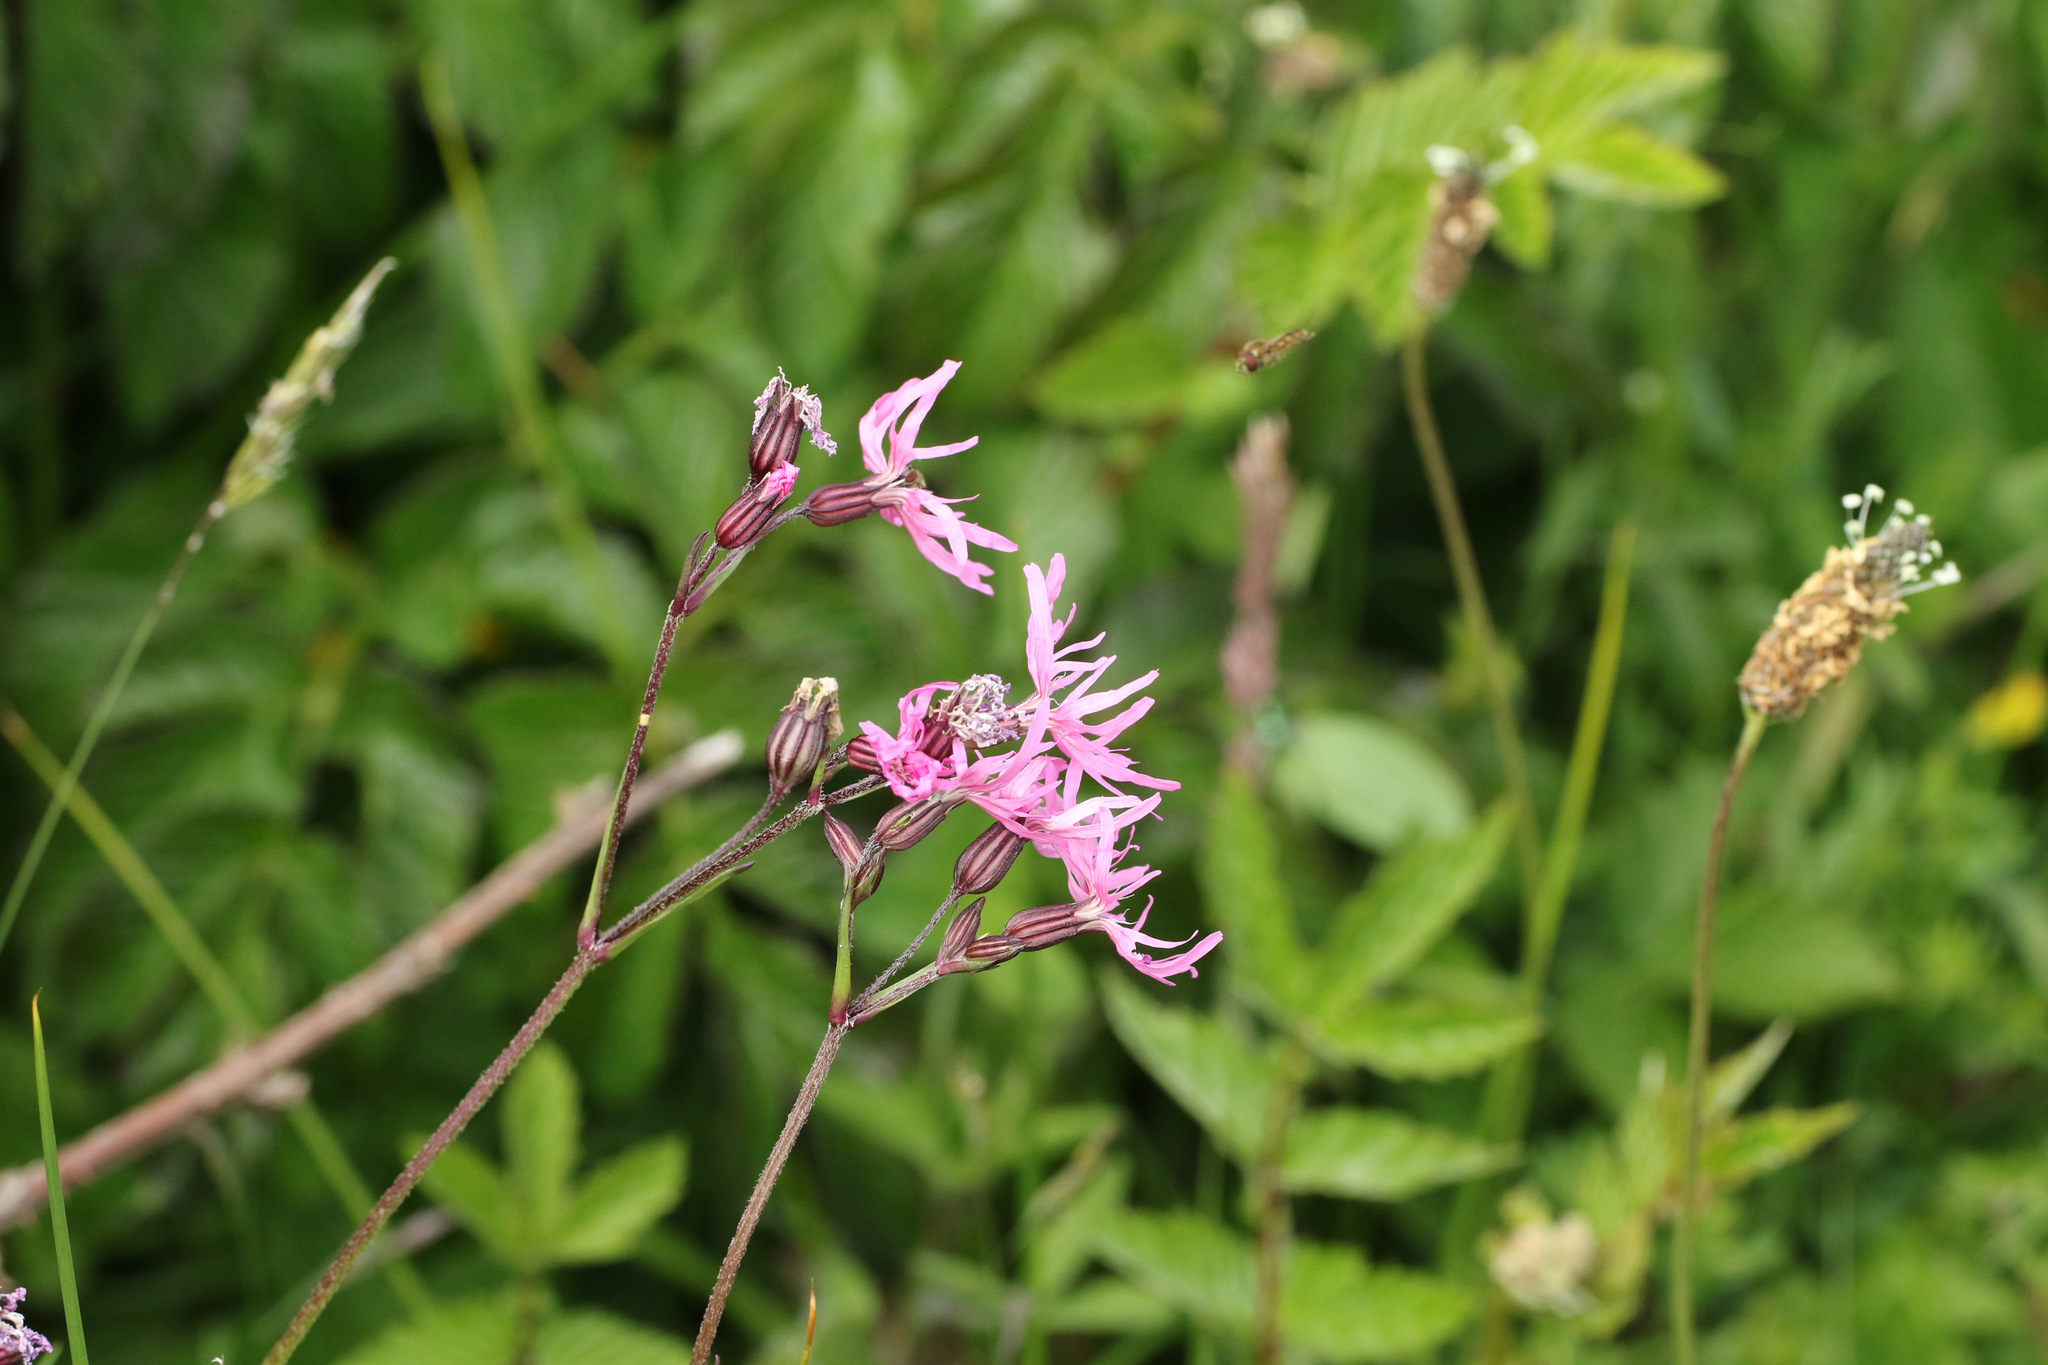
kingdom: Plantae
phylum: Tracheophyta
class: Magnoliopsida
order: Caryophyllales
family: Caryophyllaceae
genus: Silene
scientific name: Silene flos-cuculi
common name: Ragged-robin
